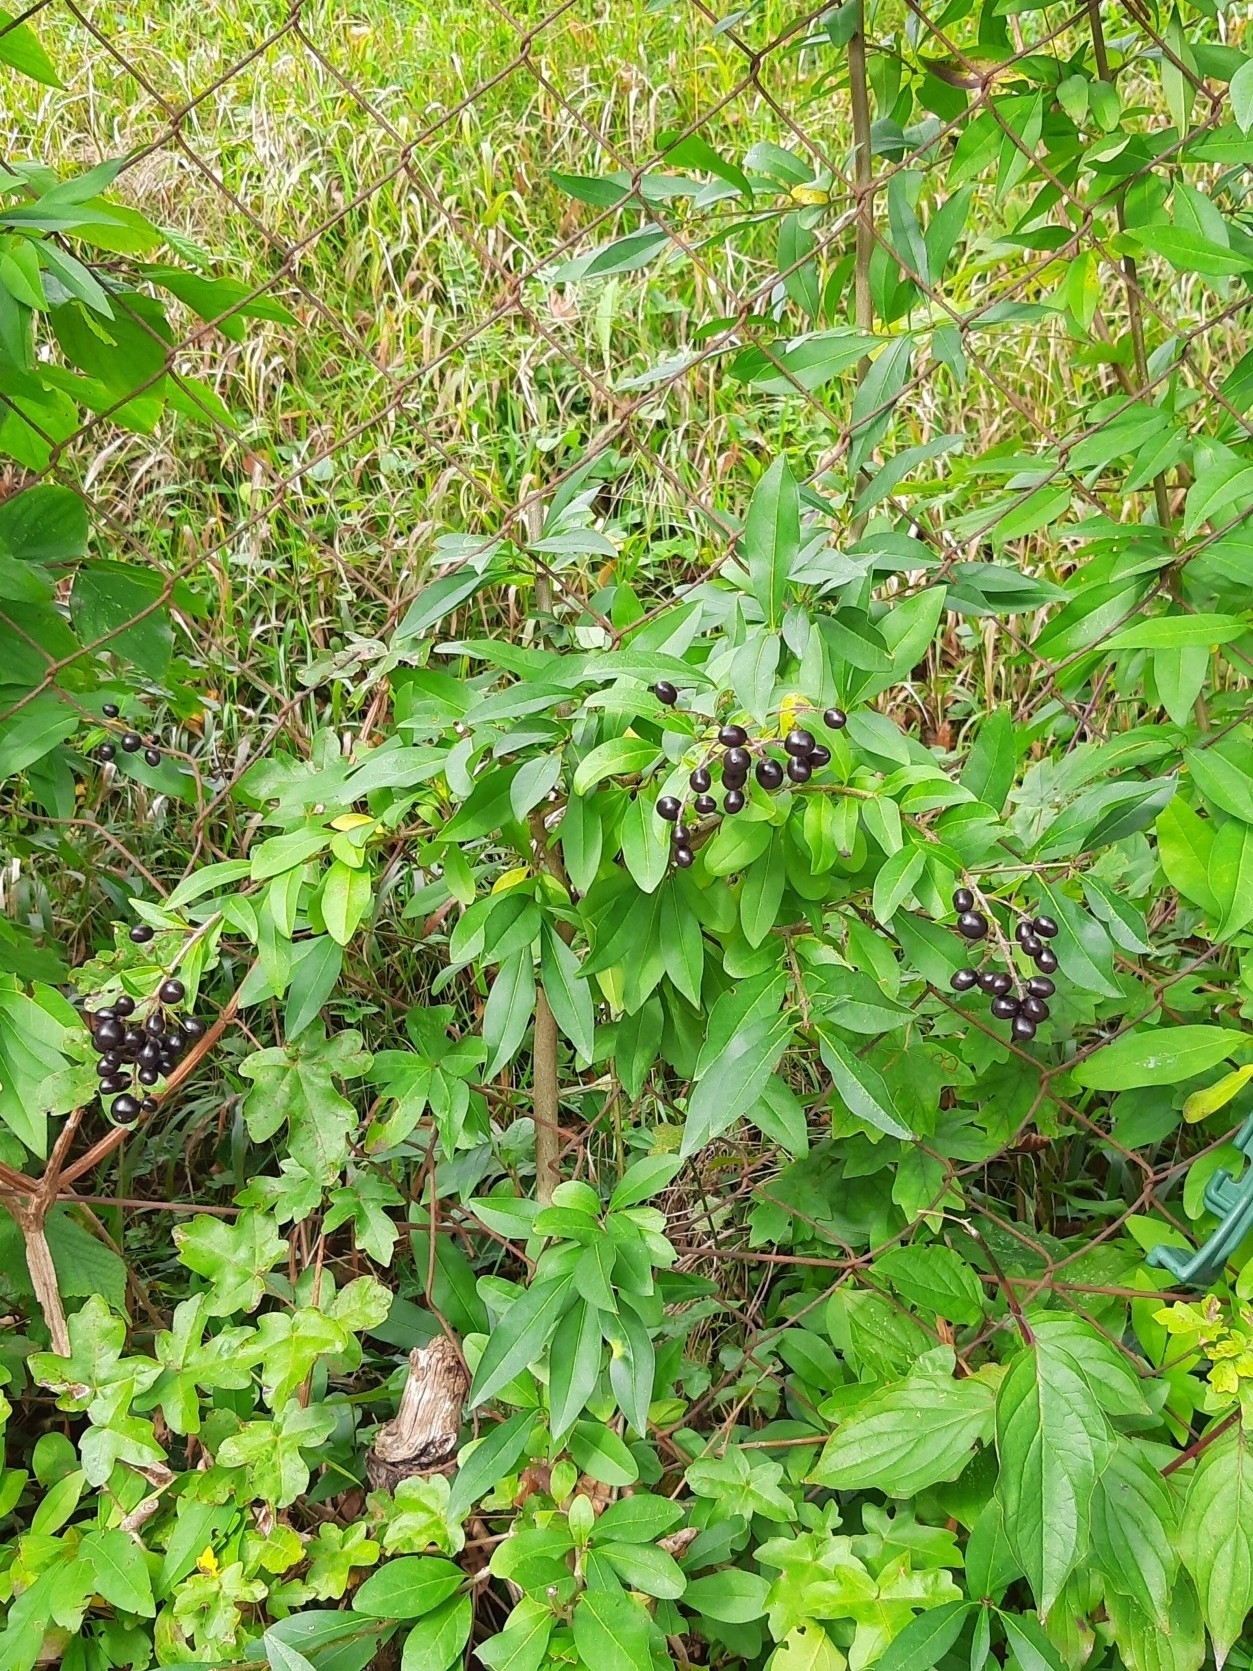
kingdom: Plantae
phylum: Tracheophyta
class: Magnoliopsida
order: Lamiales
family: Oleaceae
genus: Ligustrum
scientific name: Ligustrum vulgare
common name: Wild privet
